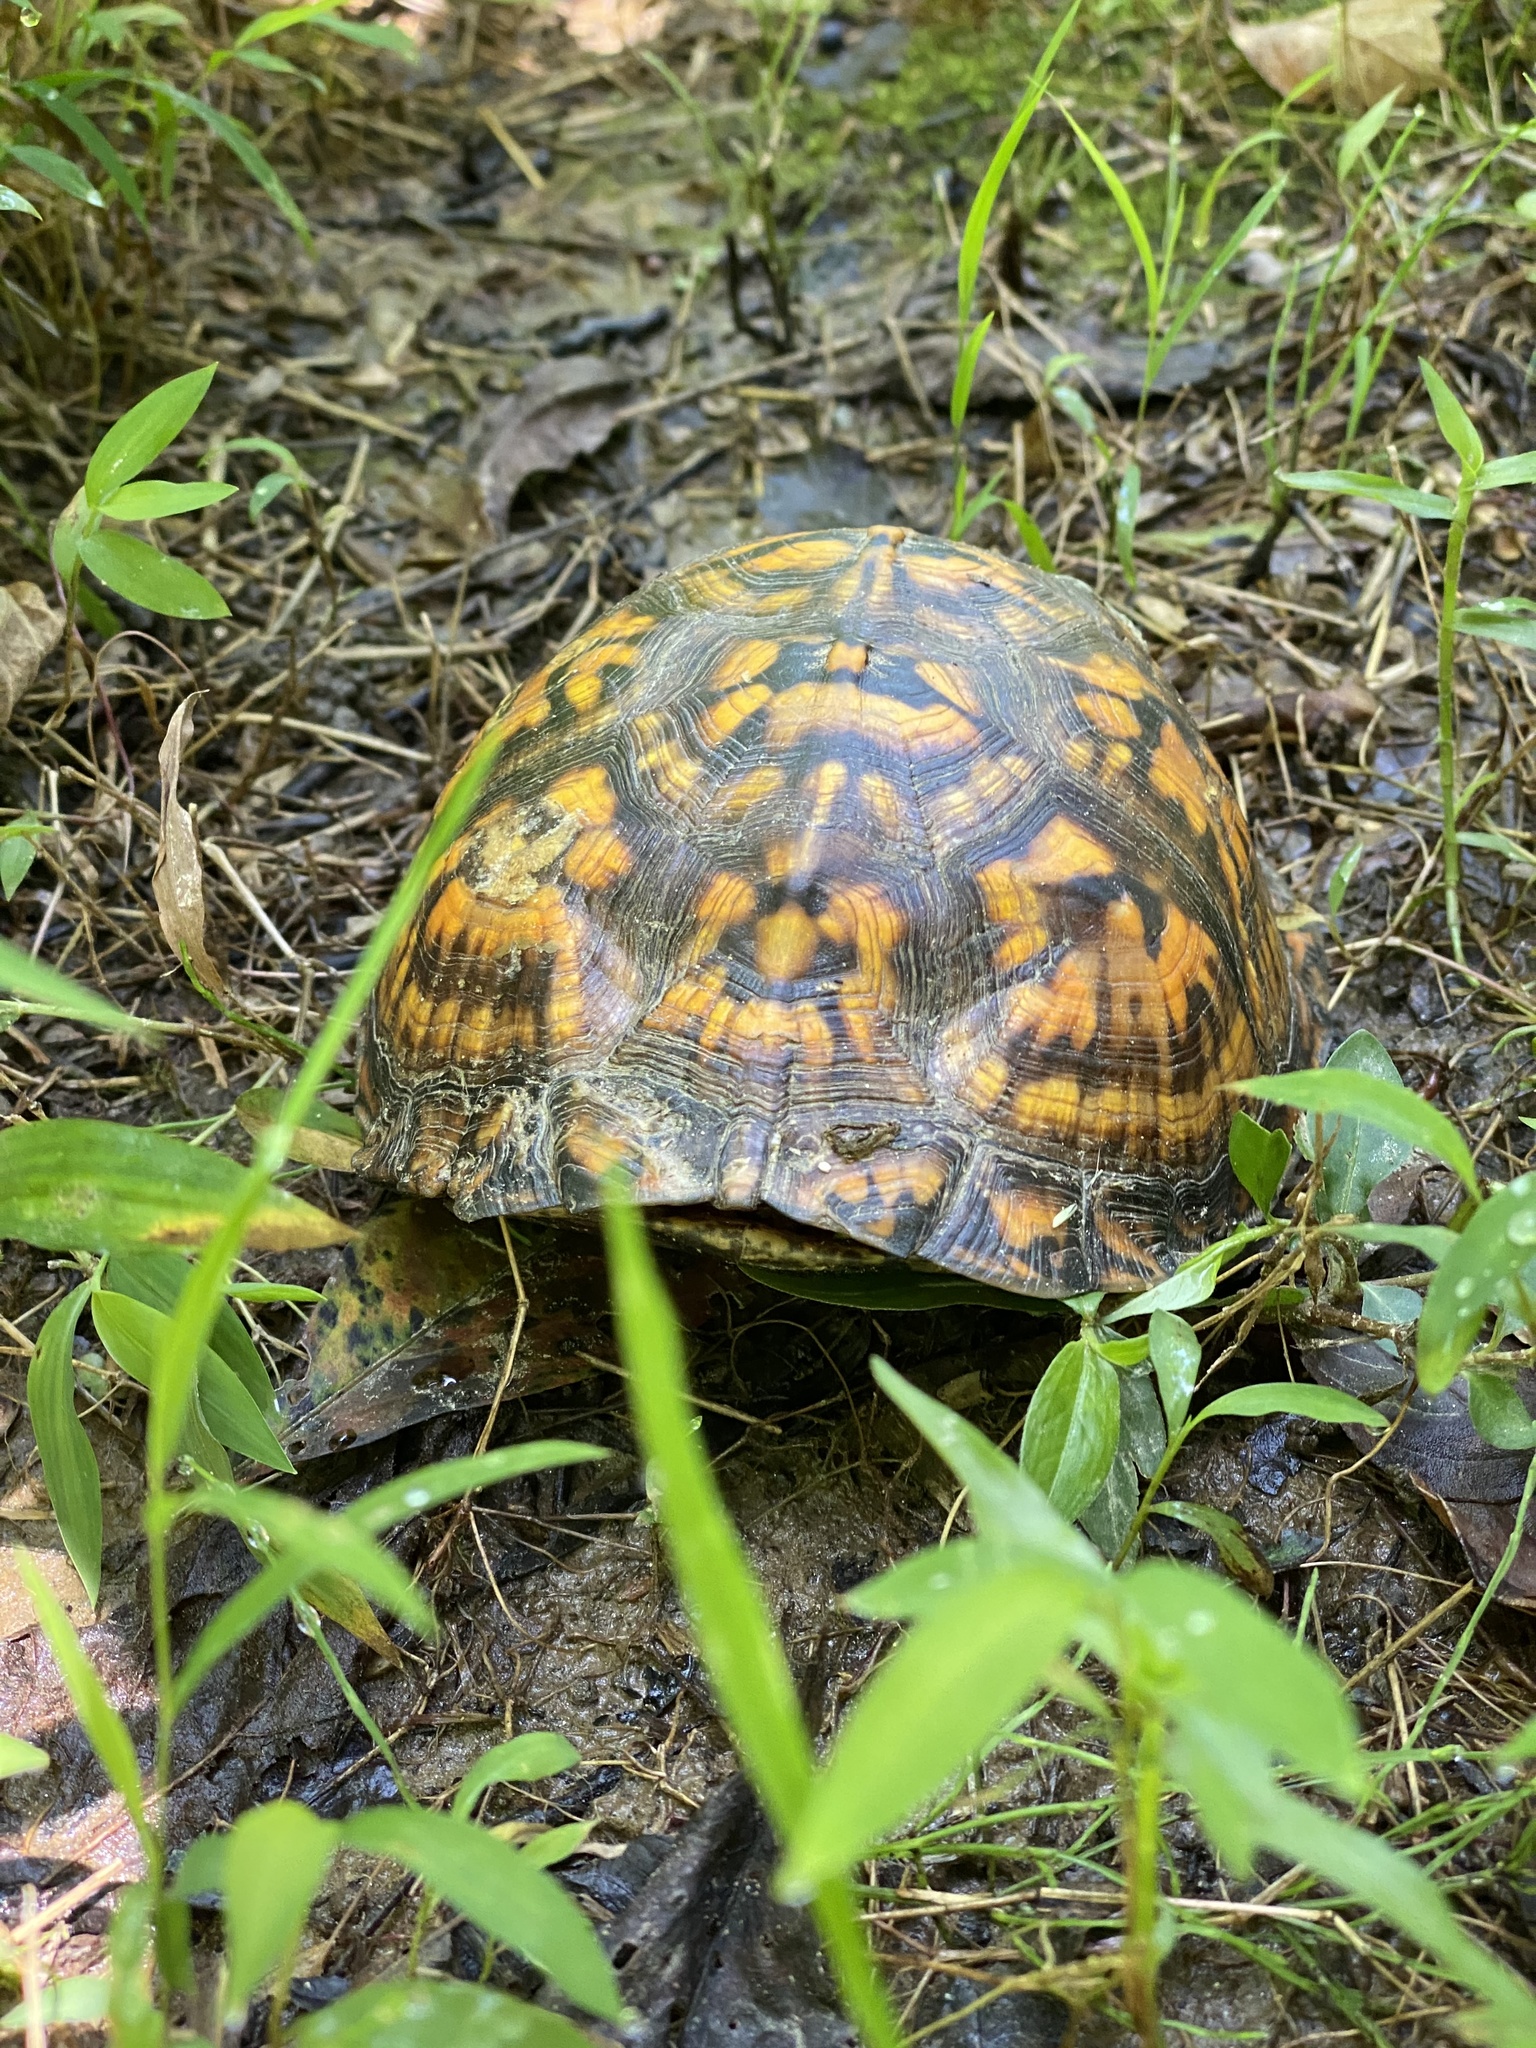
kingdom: Animalia
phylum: Chordata
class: Testudines
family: Emydidae
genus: Terrapene
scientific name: Terrapene carolina
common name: Common box turtle
